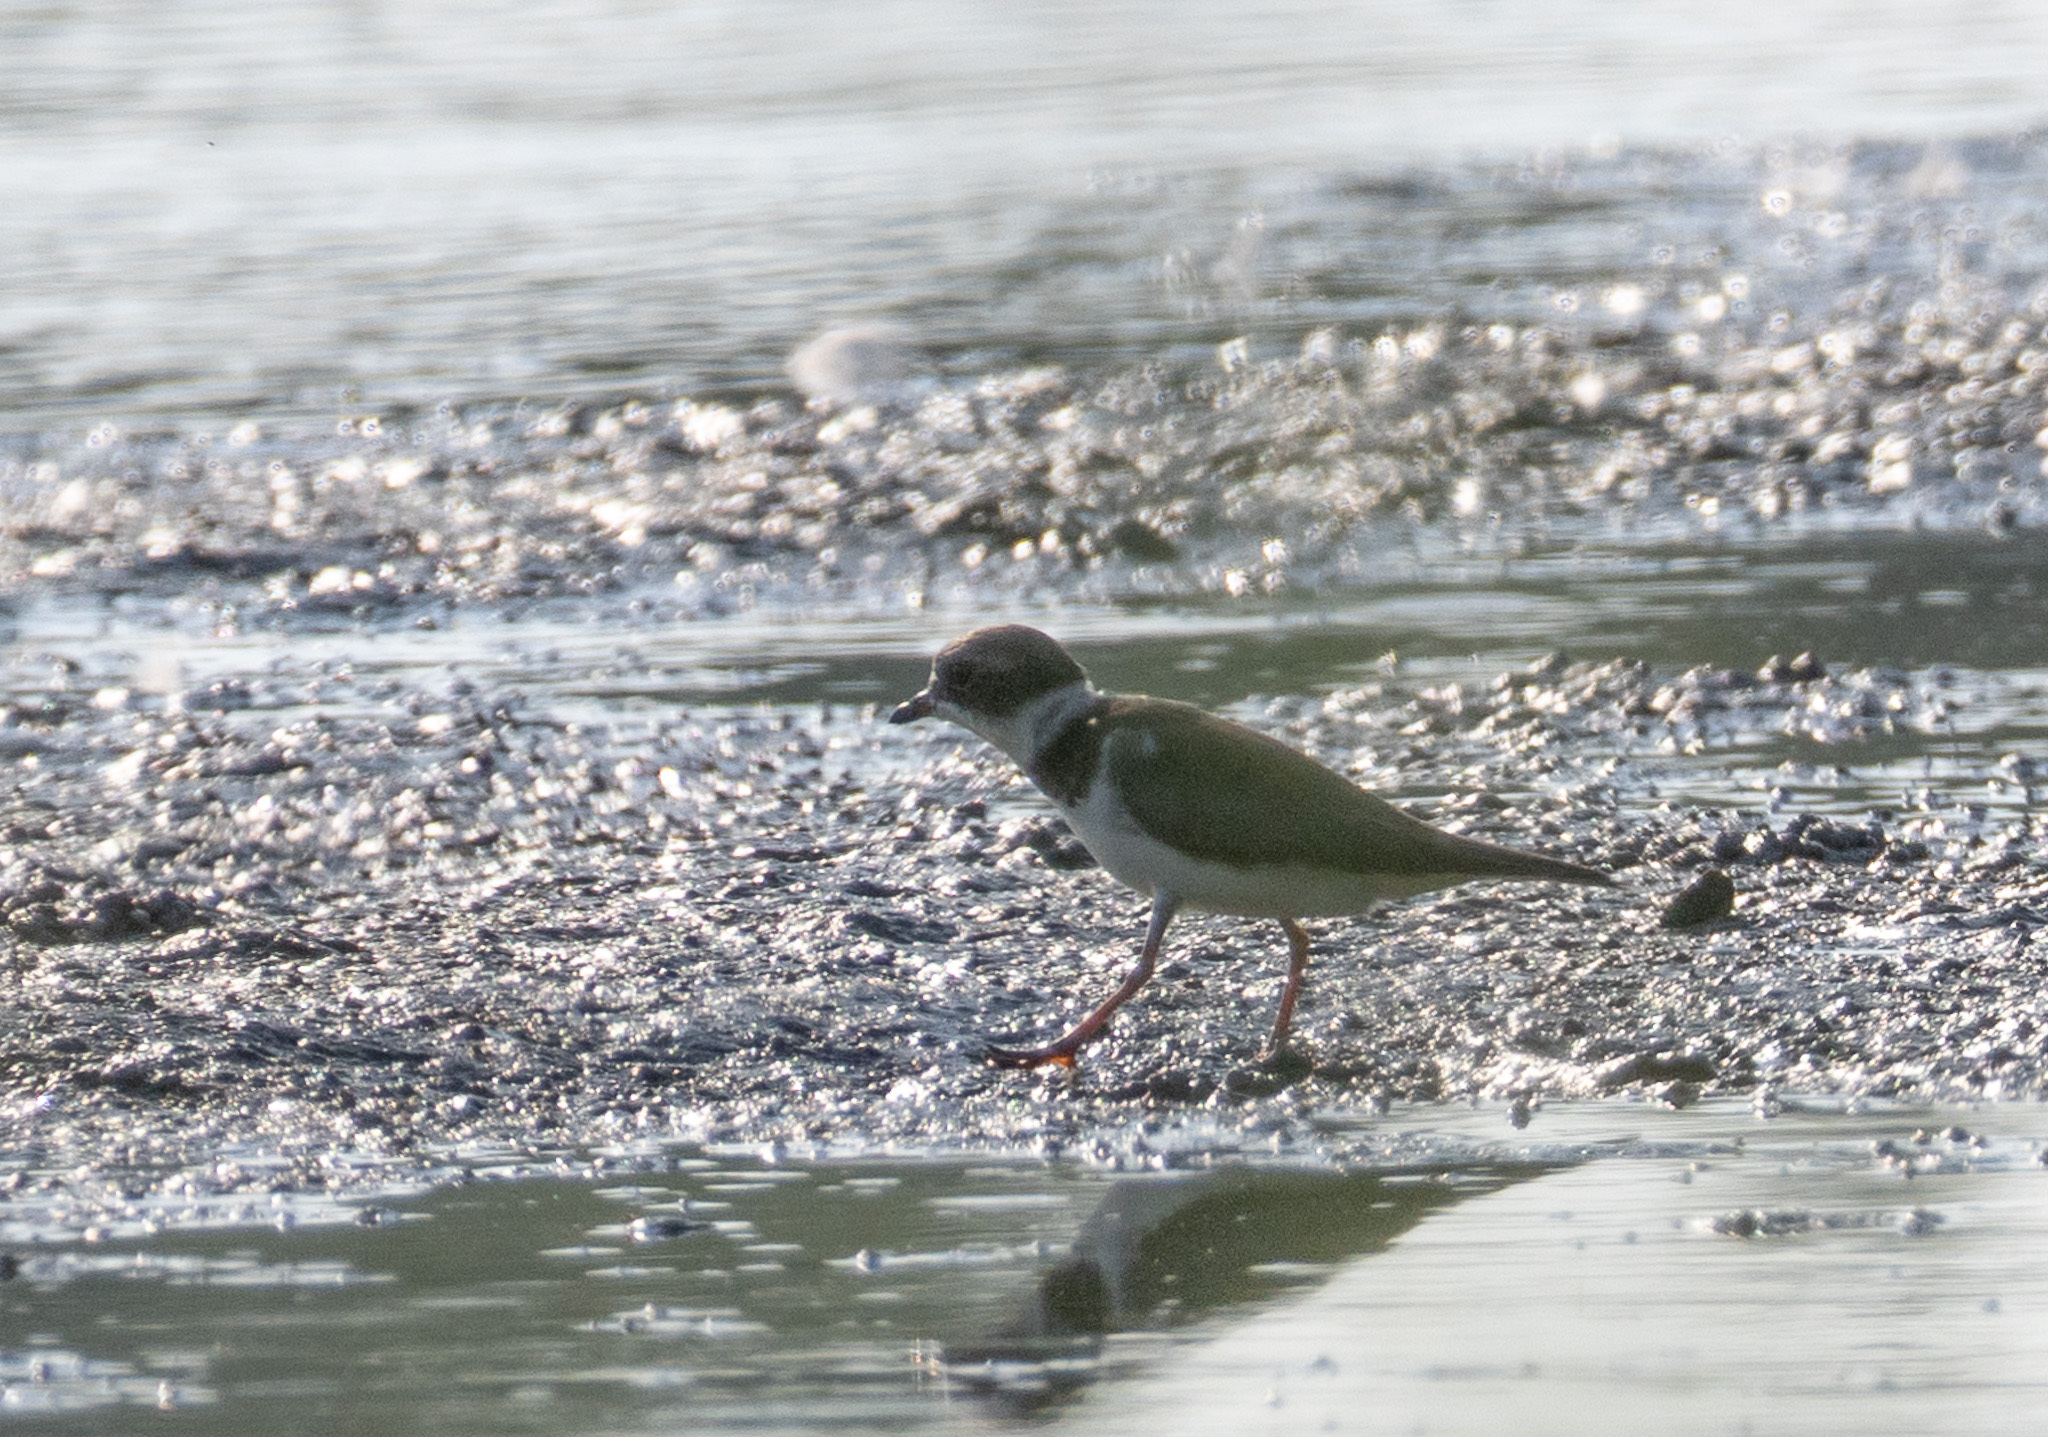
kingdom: Animalia
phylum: Chordata
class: Aves
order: Charadriiformes
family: Charadriidae
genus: Charadrius
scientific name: Charadrius semipalmatus
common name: Semipalmated plover
